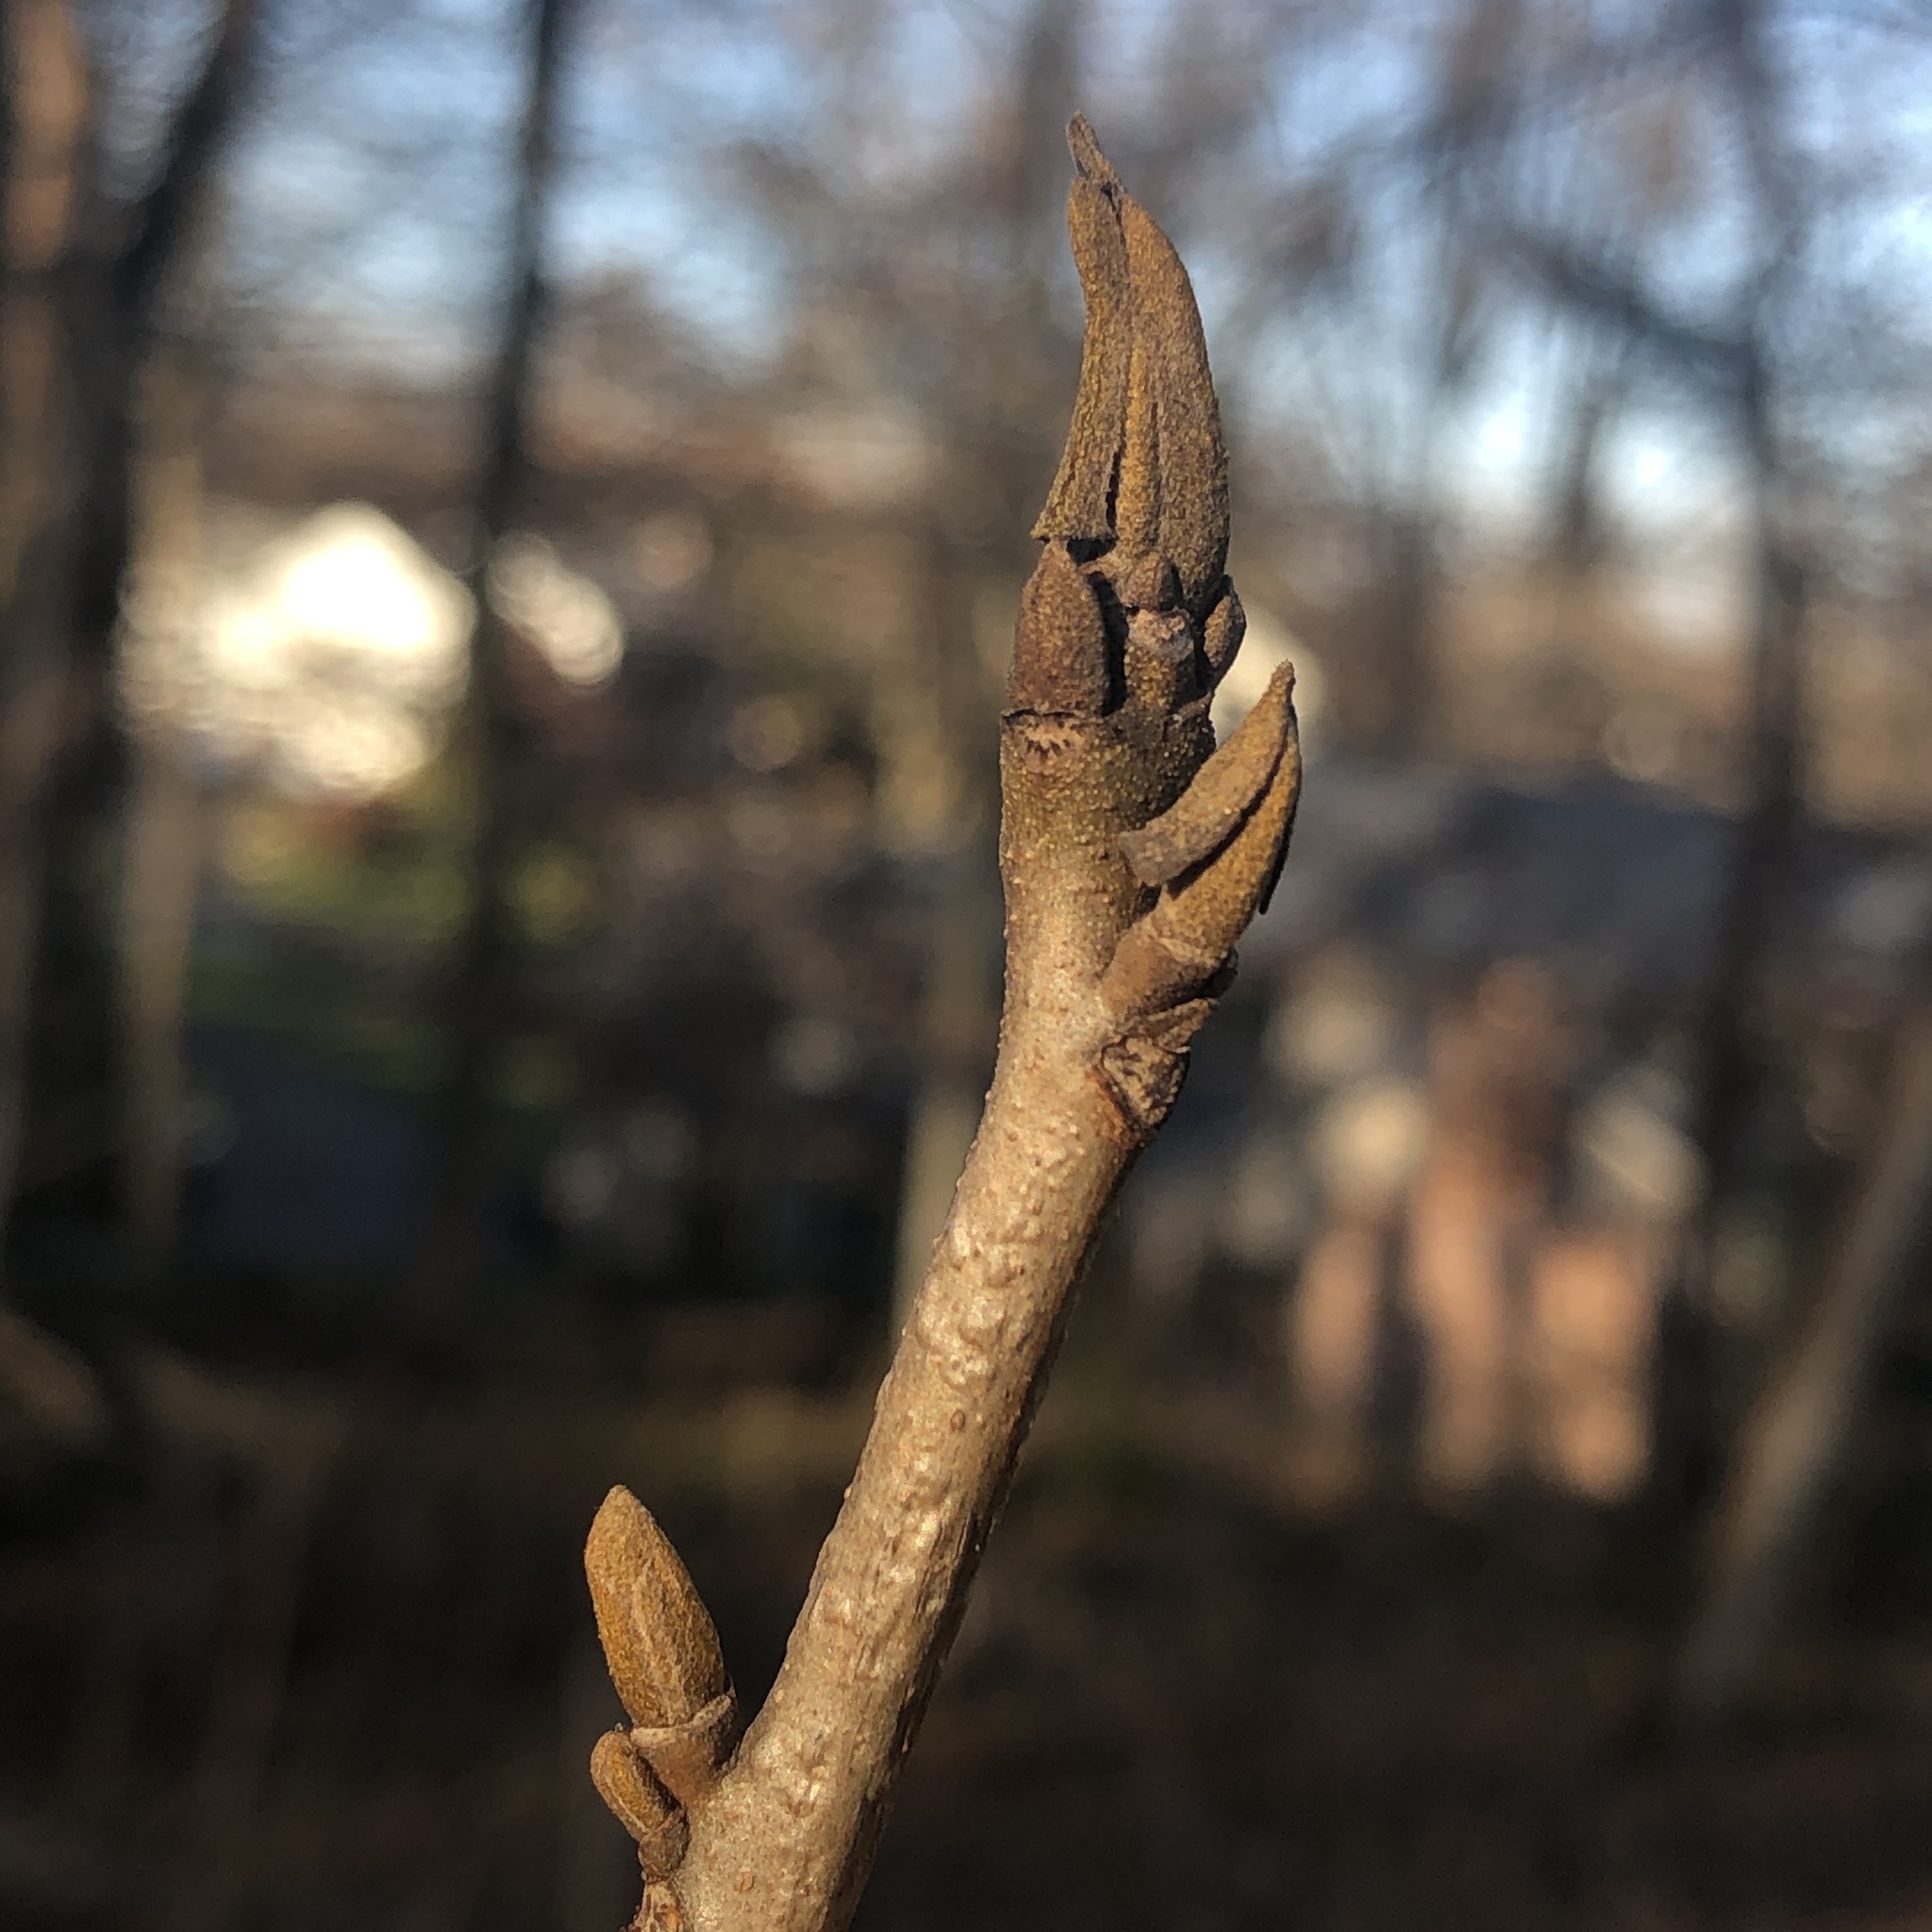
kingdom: Plantae
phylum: Tracheophyta
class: Magnoliopsida
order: Fagales
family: Juglandaceae
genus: Carya
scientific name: Carya cordiformis
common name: Bitternut hickory
